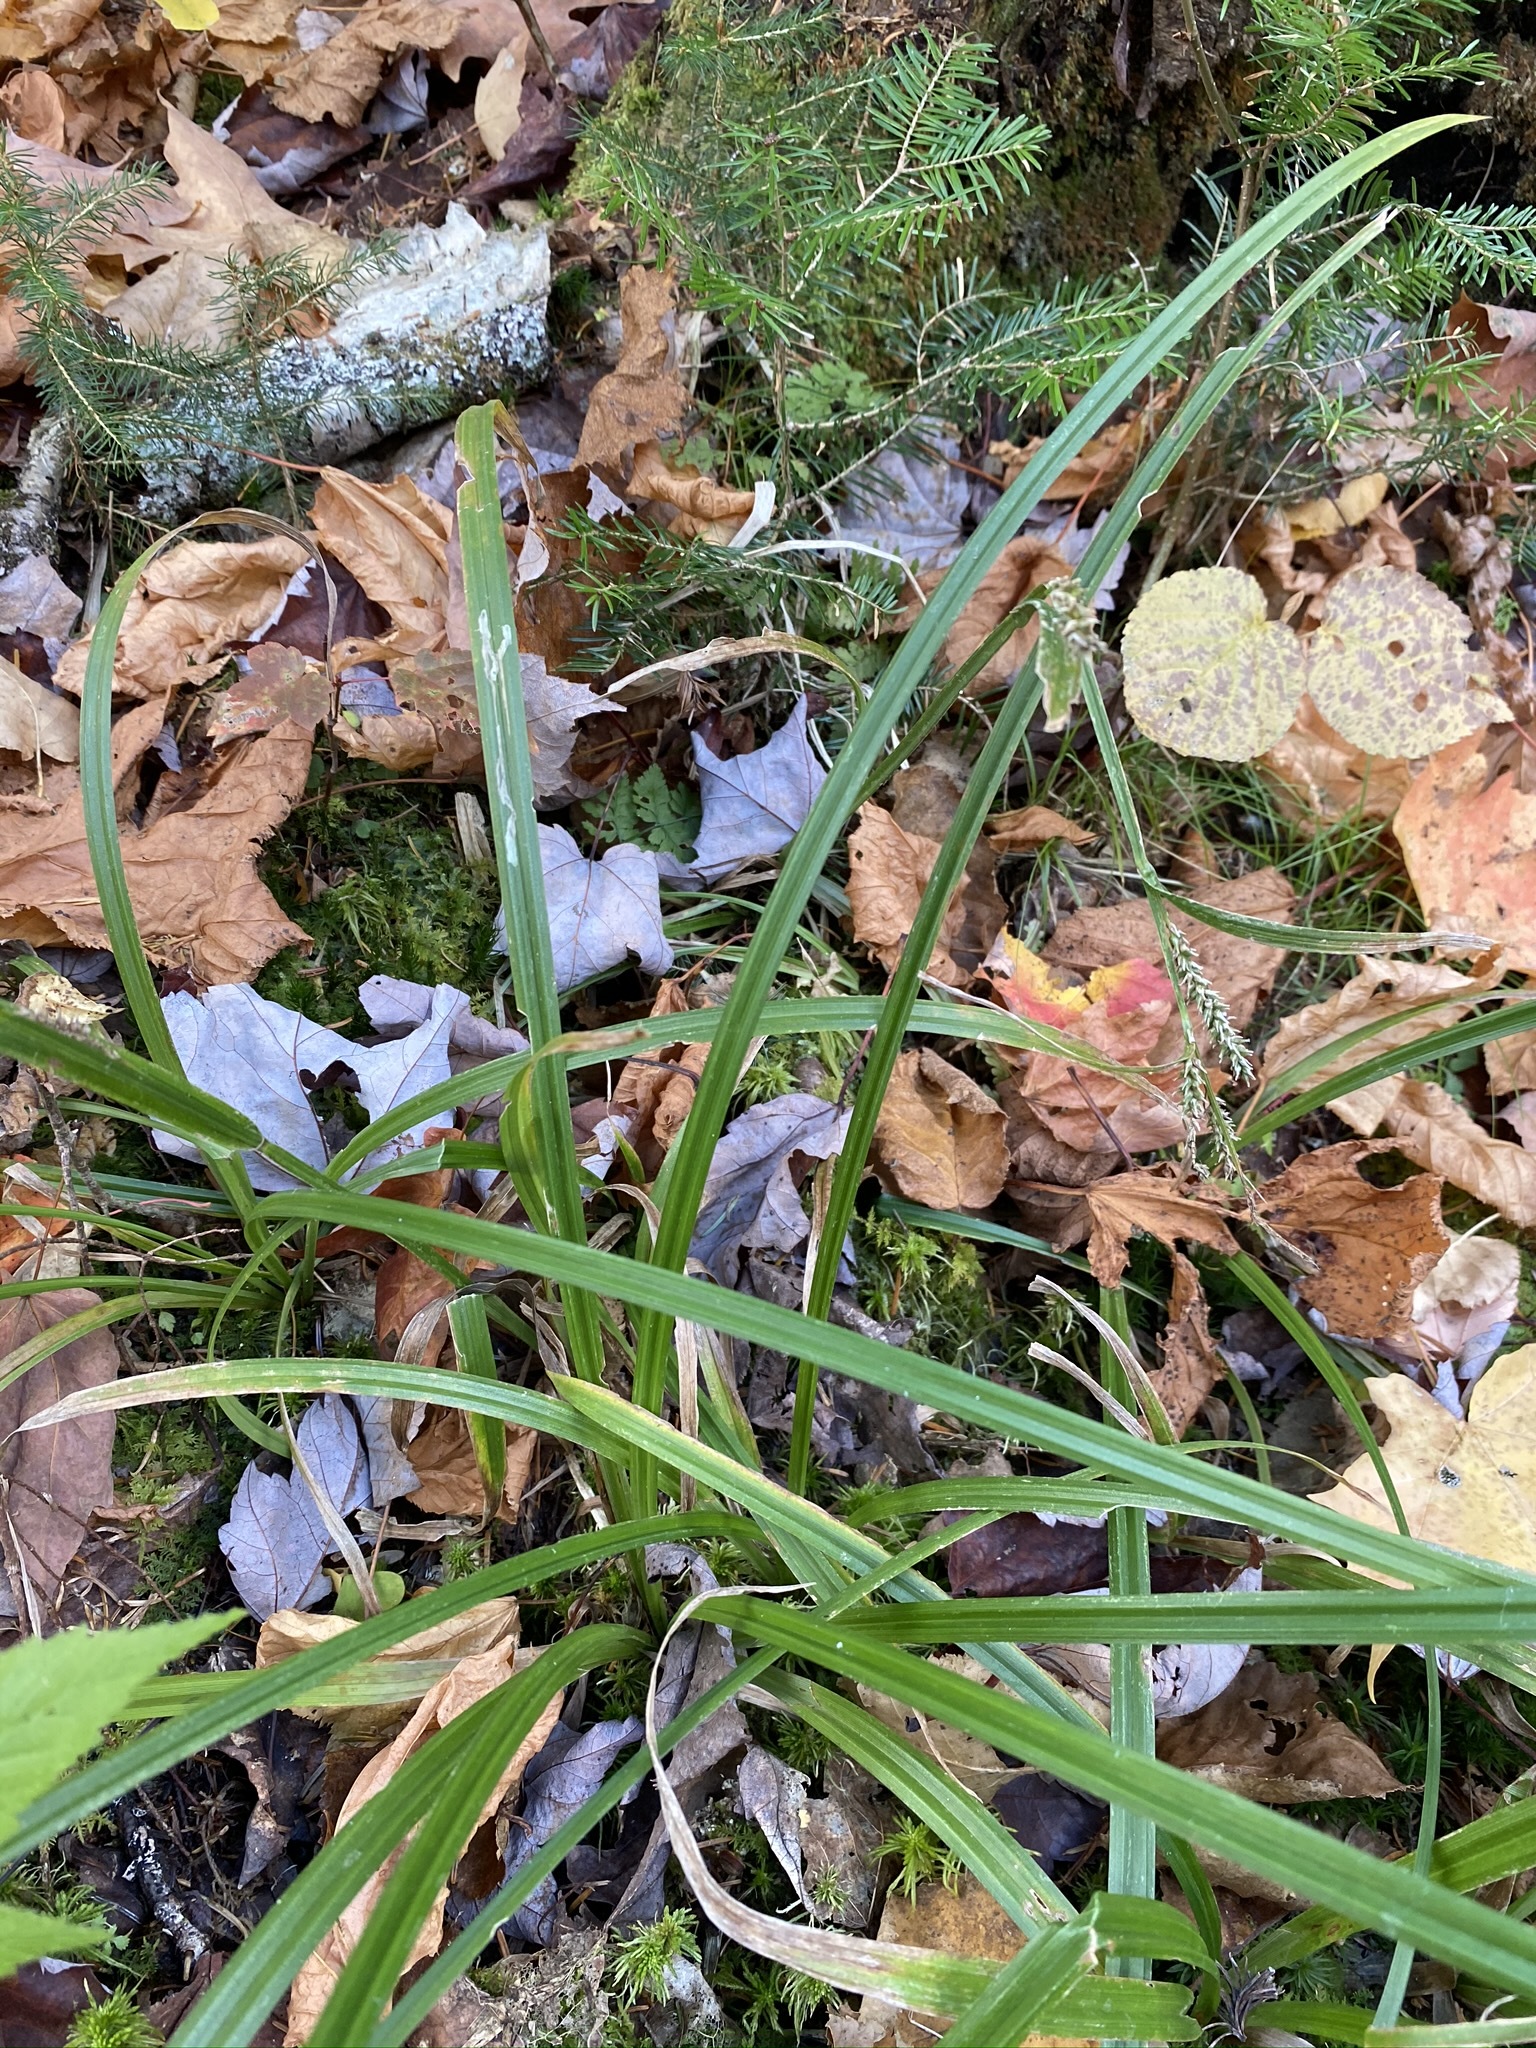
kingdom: Plantae
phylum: Tracheophyta
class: Liliopsida
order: Poales
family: Cyperaceae
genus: Carex
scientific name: Carex scabrata
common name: Eastern rough sedge
